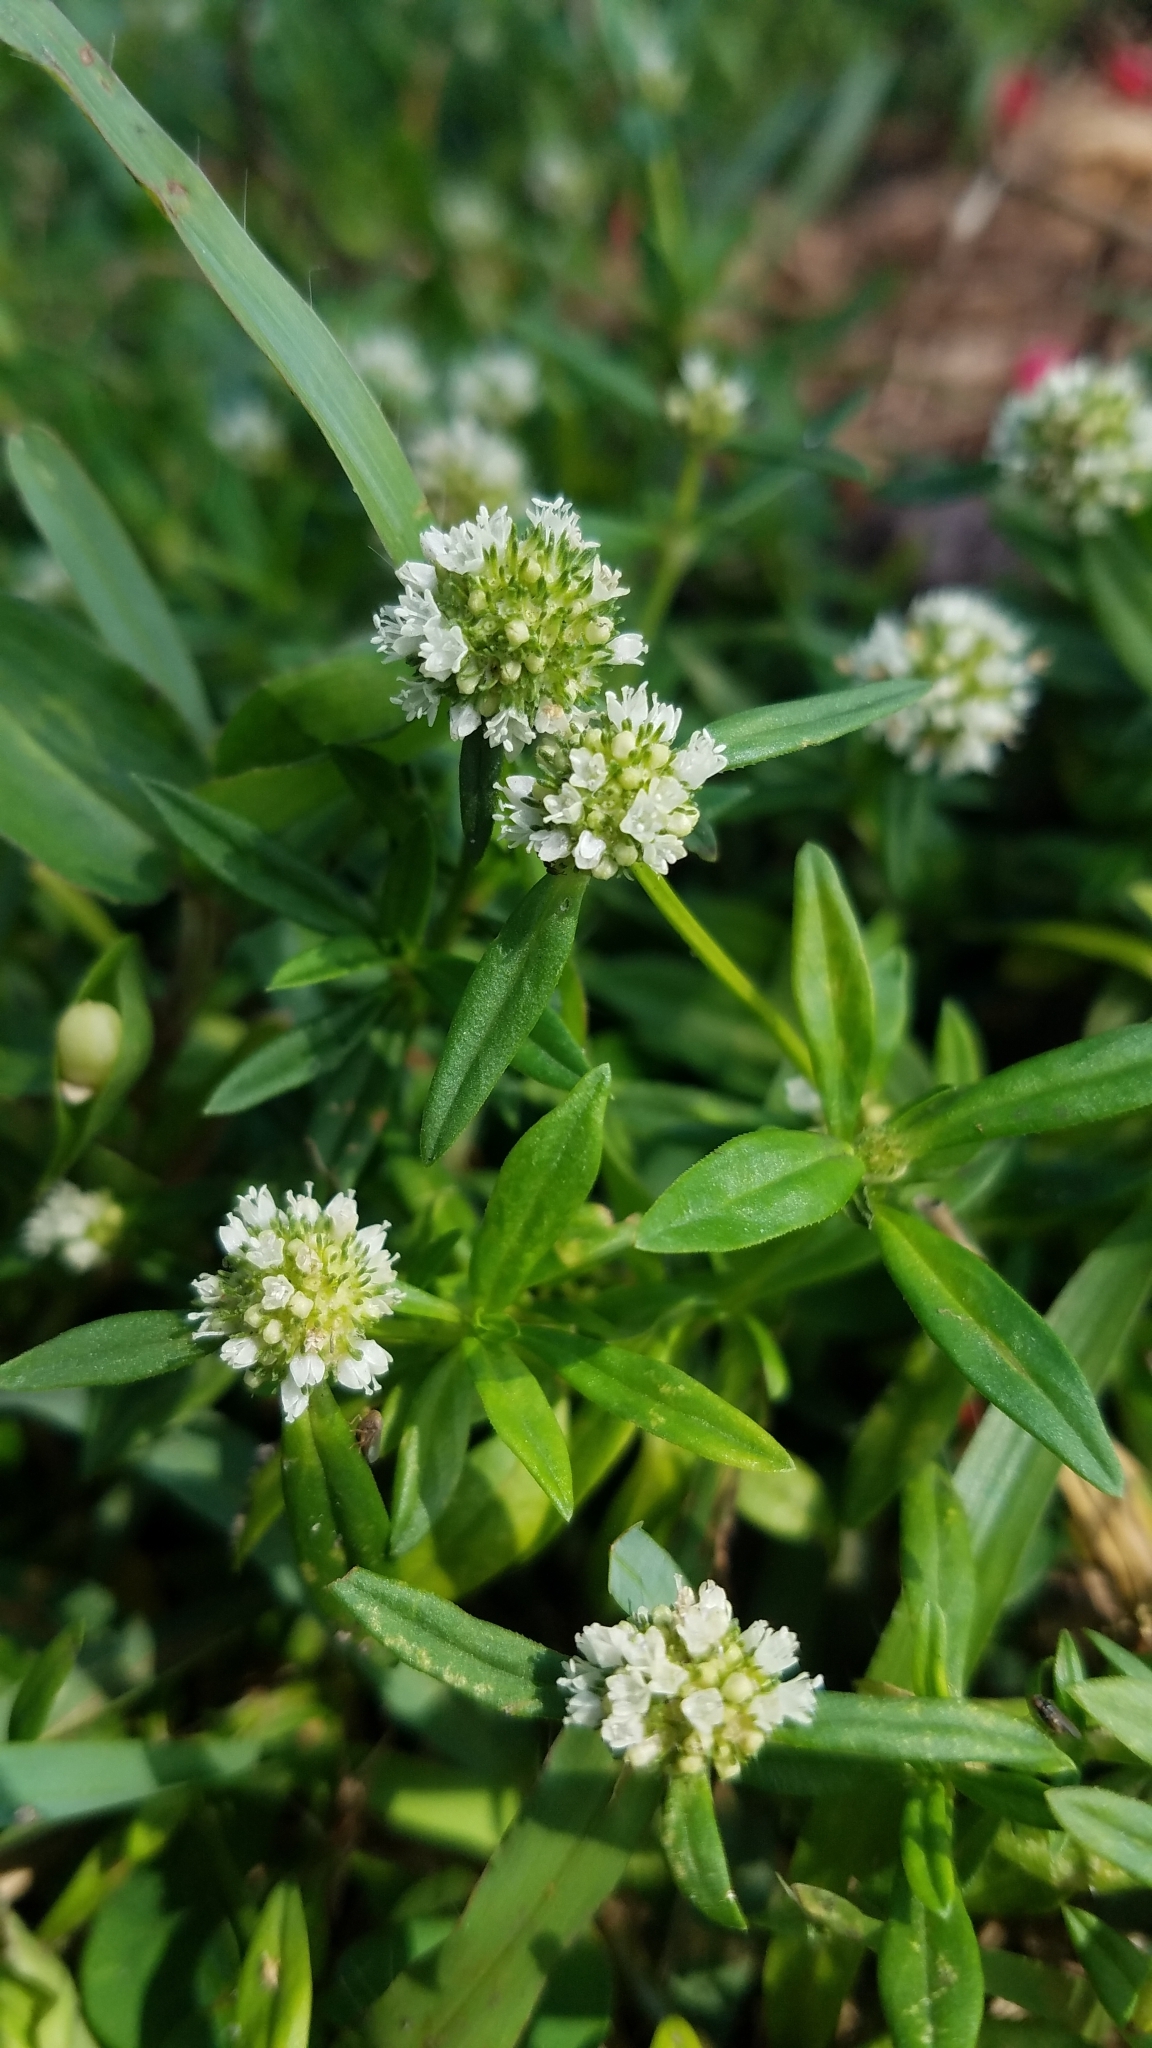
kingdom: Plantae
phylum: Tracheophyta
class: Magnoliopsida
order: Gentianales
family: Rubiaceae
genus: Spermacoce
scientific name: Spermacoce verticillata
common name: Shrubby false buttonweed
